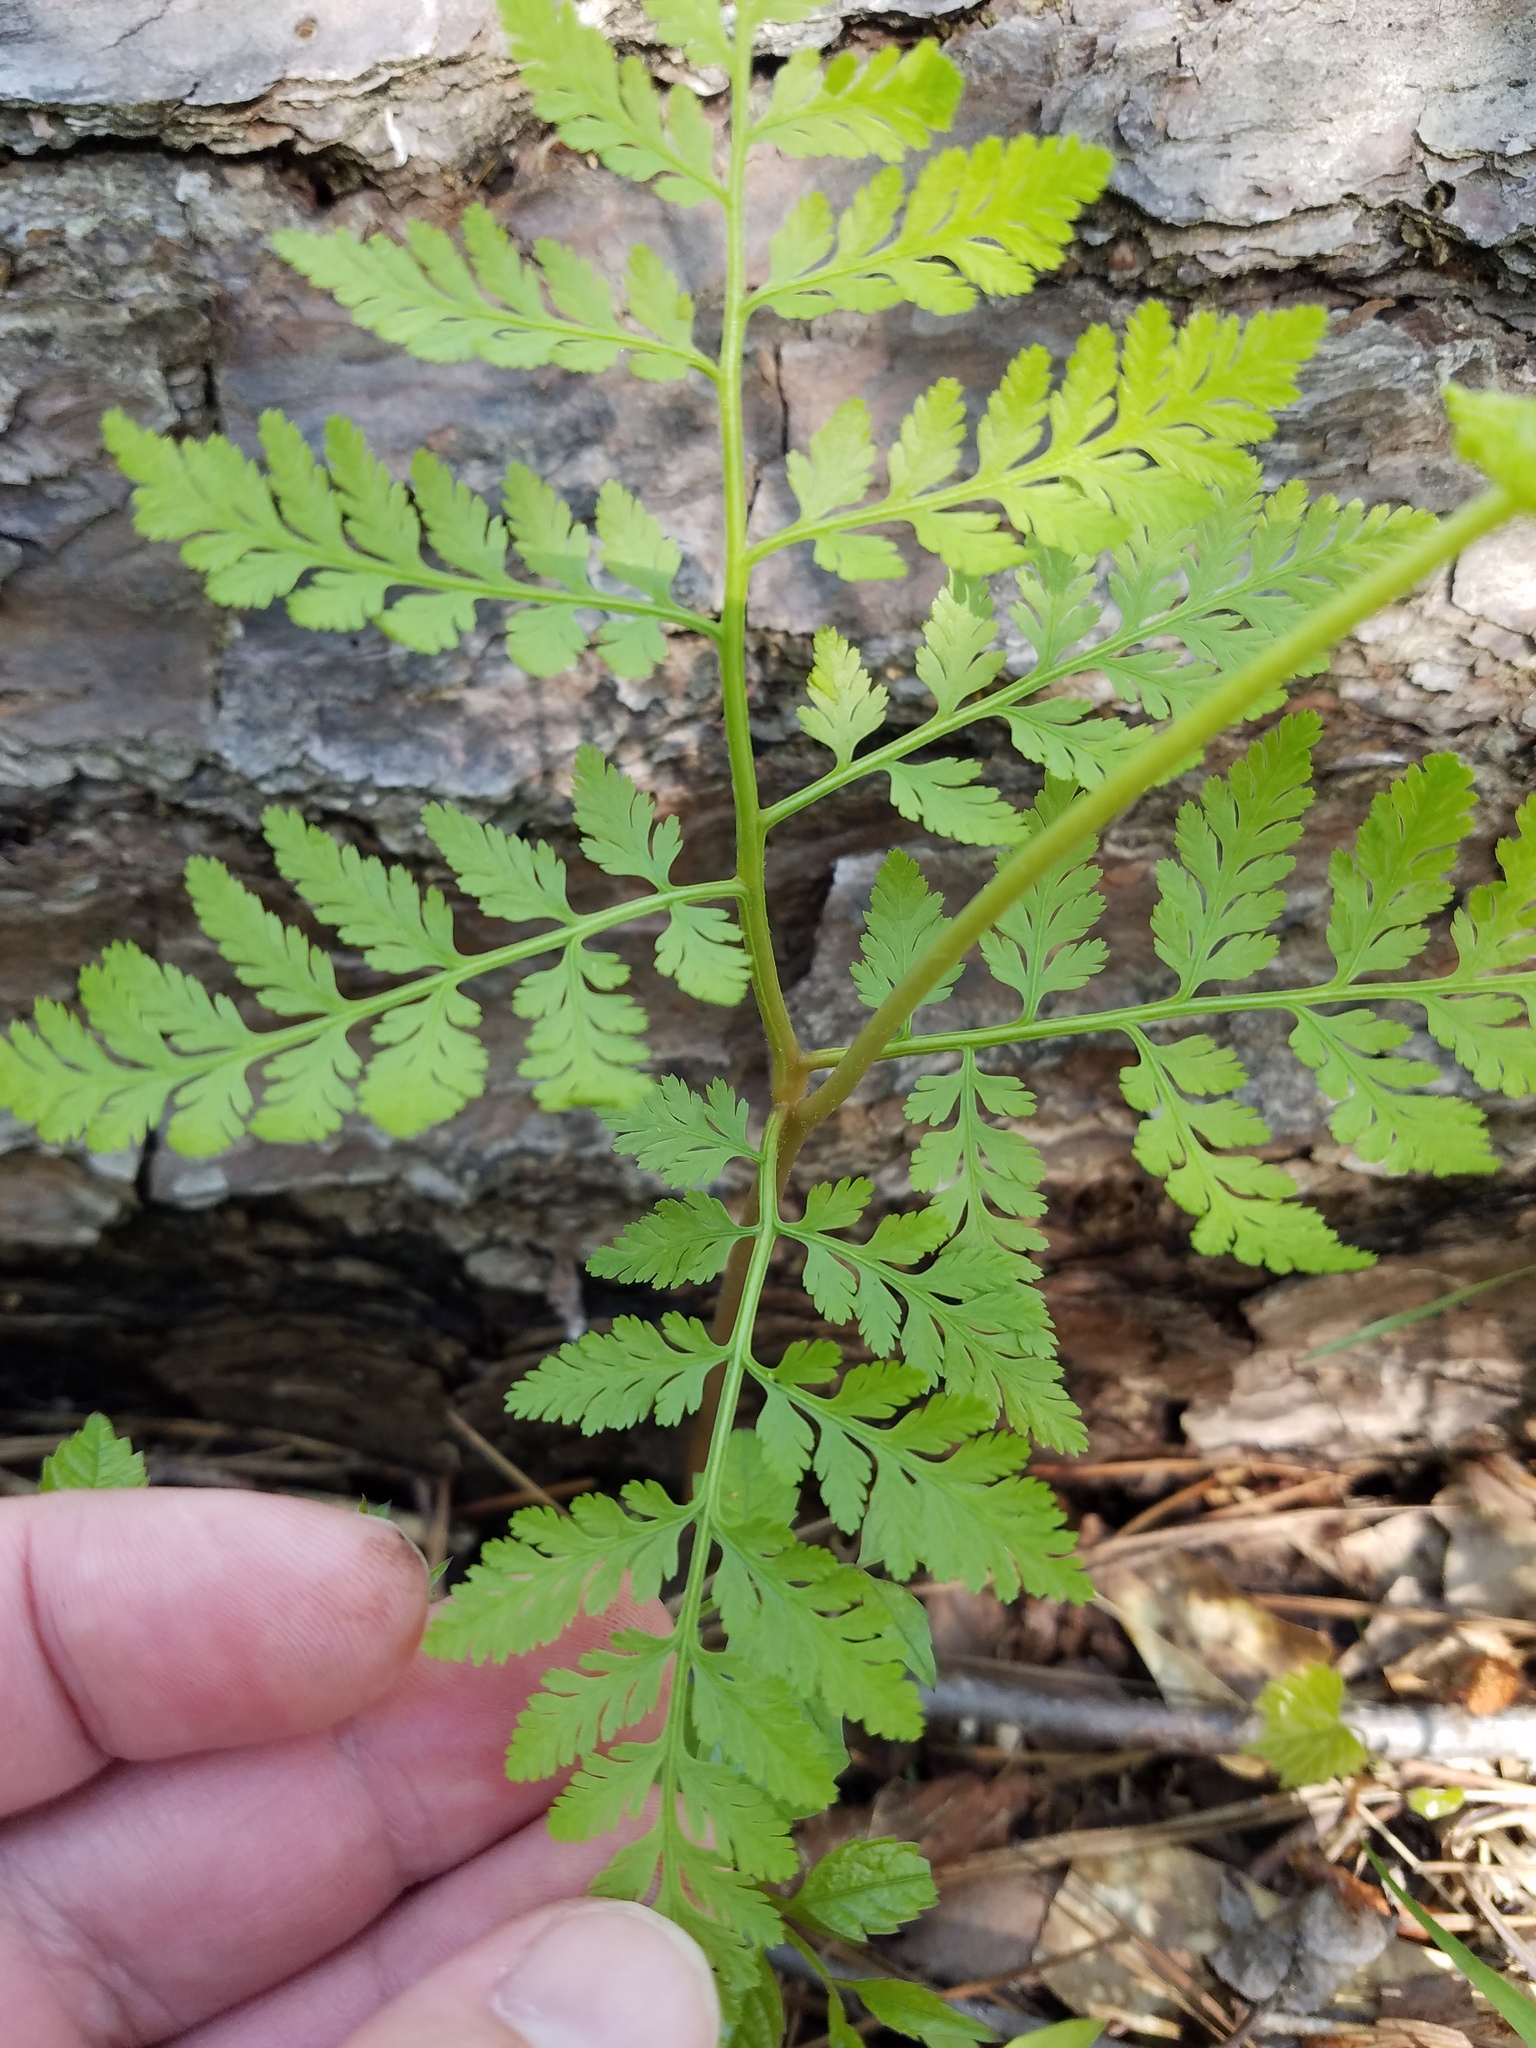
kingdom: Plantae
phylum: Tracheophyta
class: Polypodiopsida
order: Ophioglossales
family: Ophioglossaceae
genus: Botrypus
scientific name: Botrypus virginianus
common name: Common grapefern
